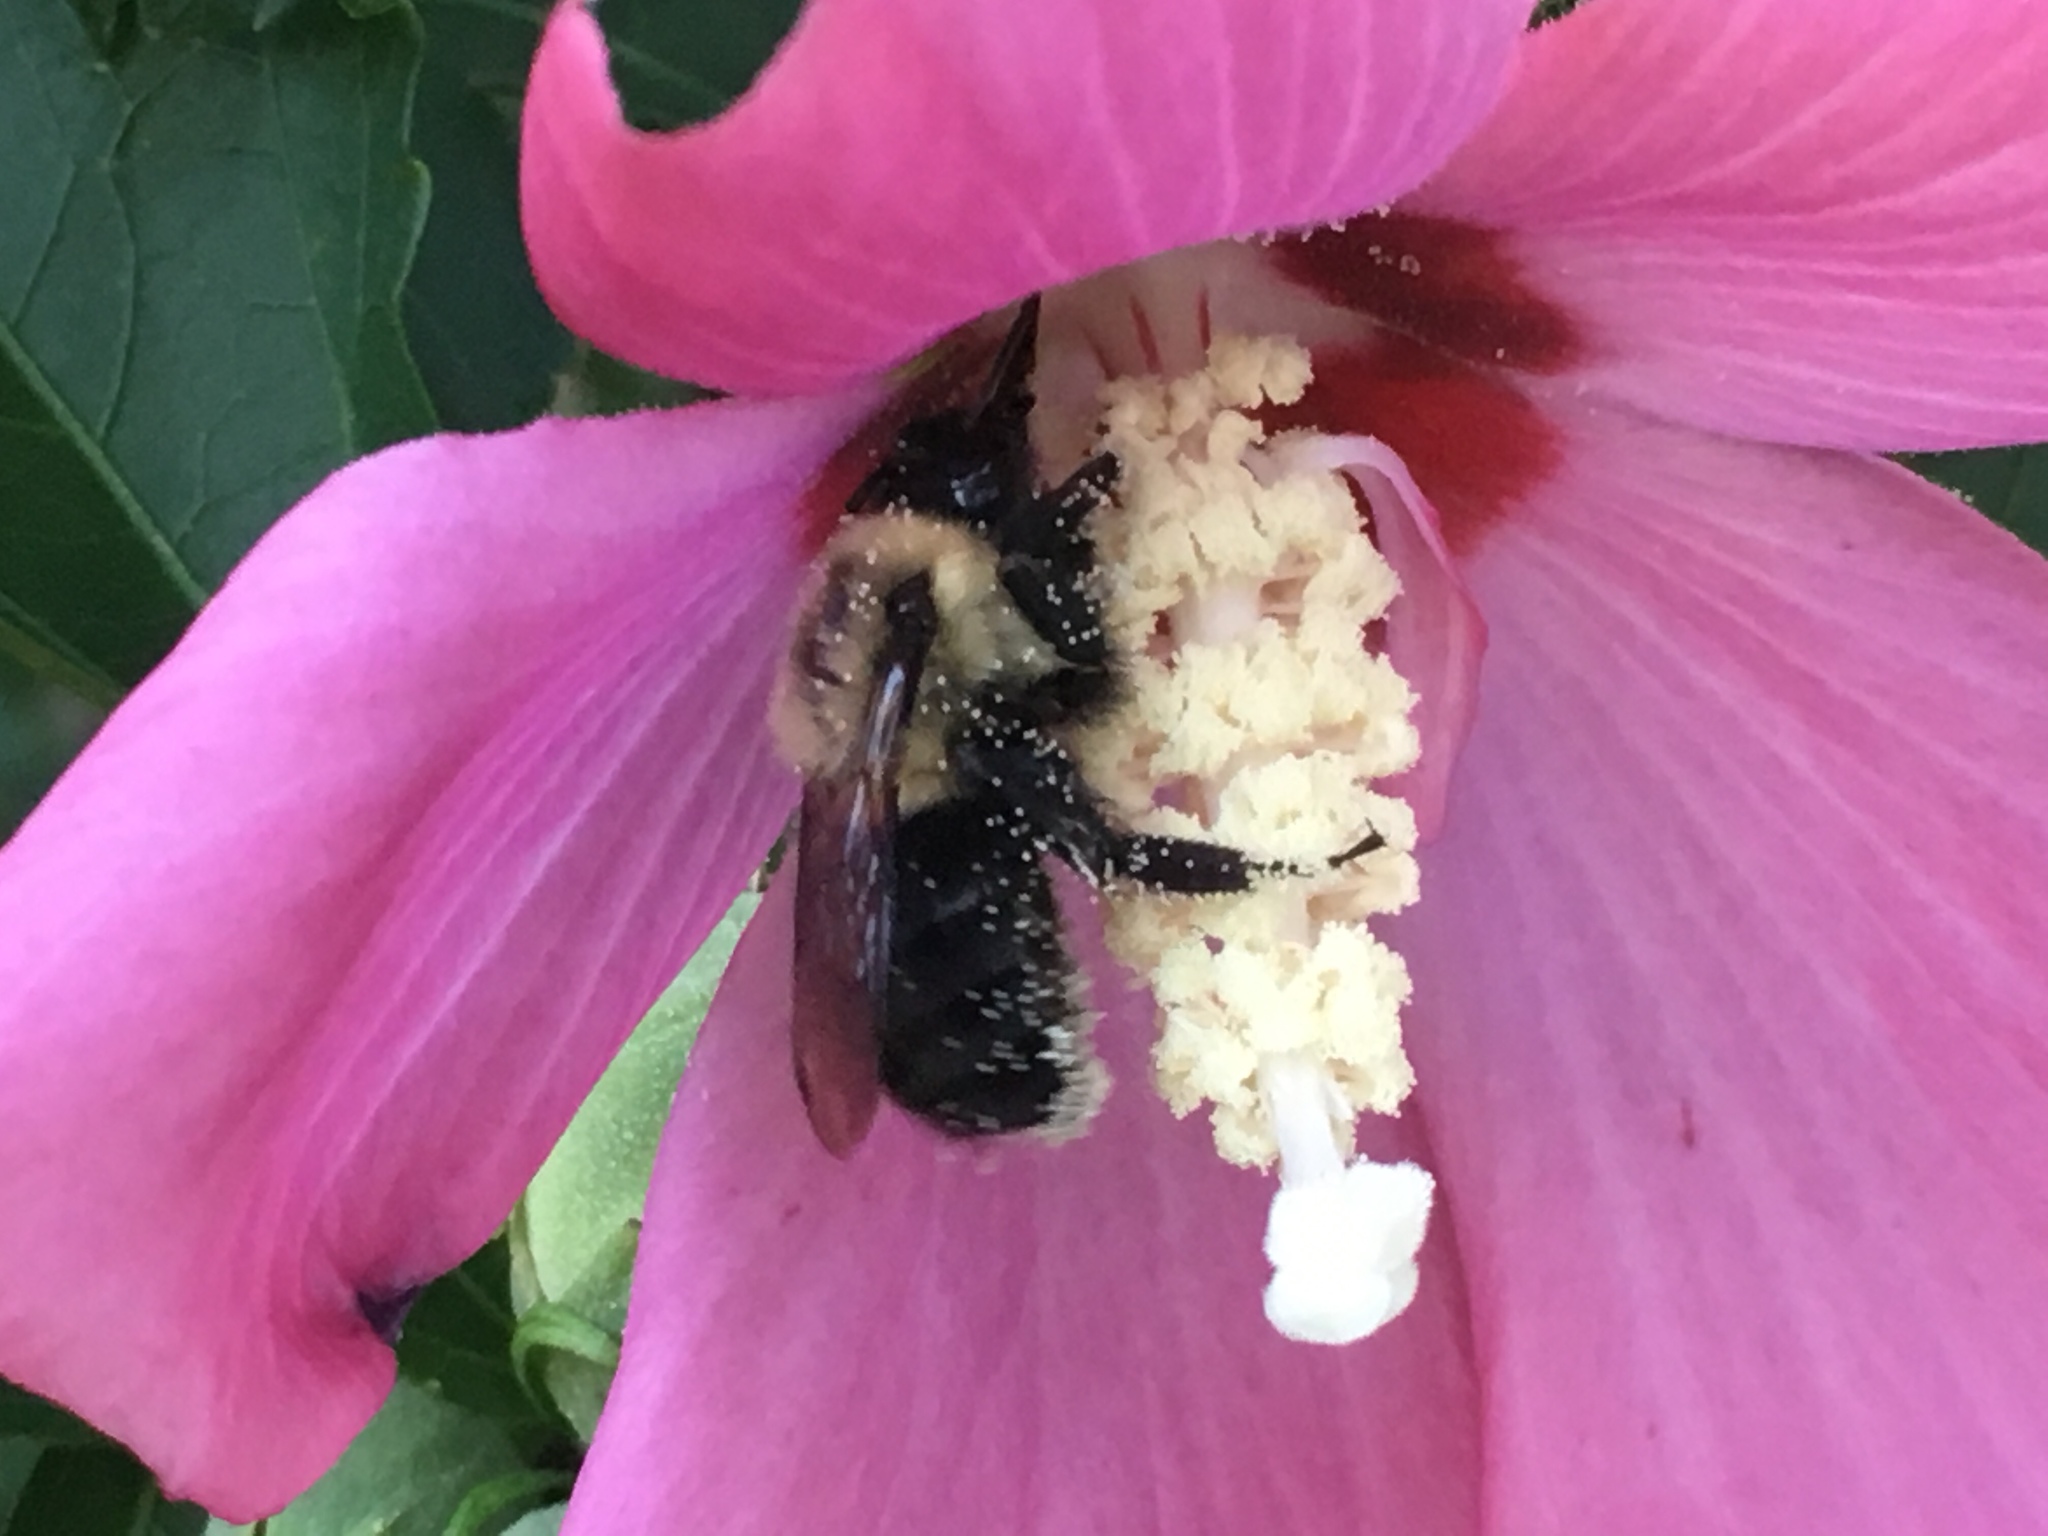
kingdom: Animalia
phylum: Arthropoda
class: Insecta
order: Hymenoptera
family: Apidae
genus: Bombus
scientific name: Bombus impatiens
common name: Common eastern bumble bee
